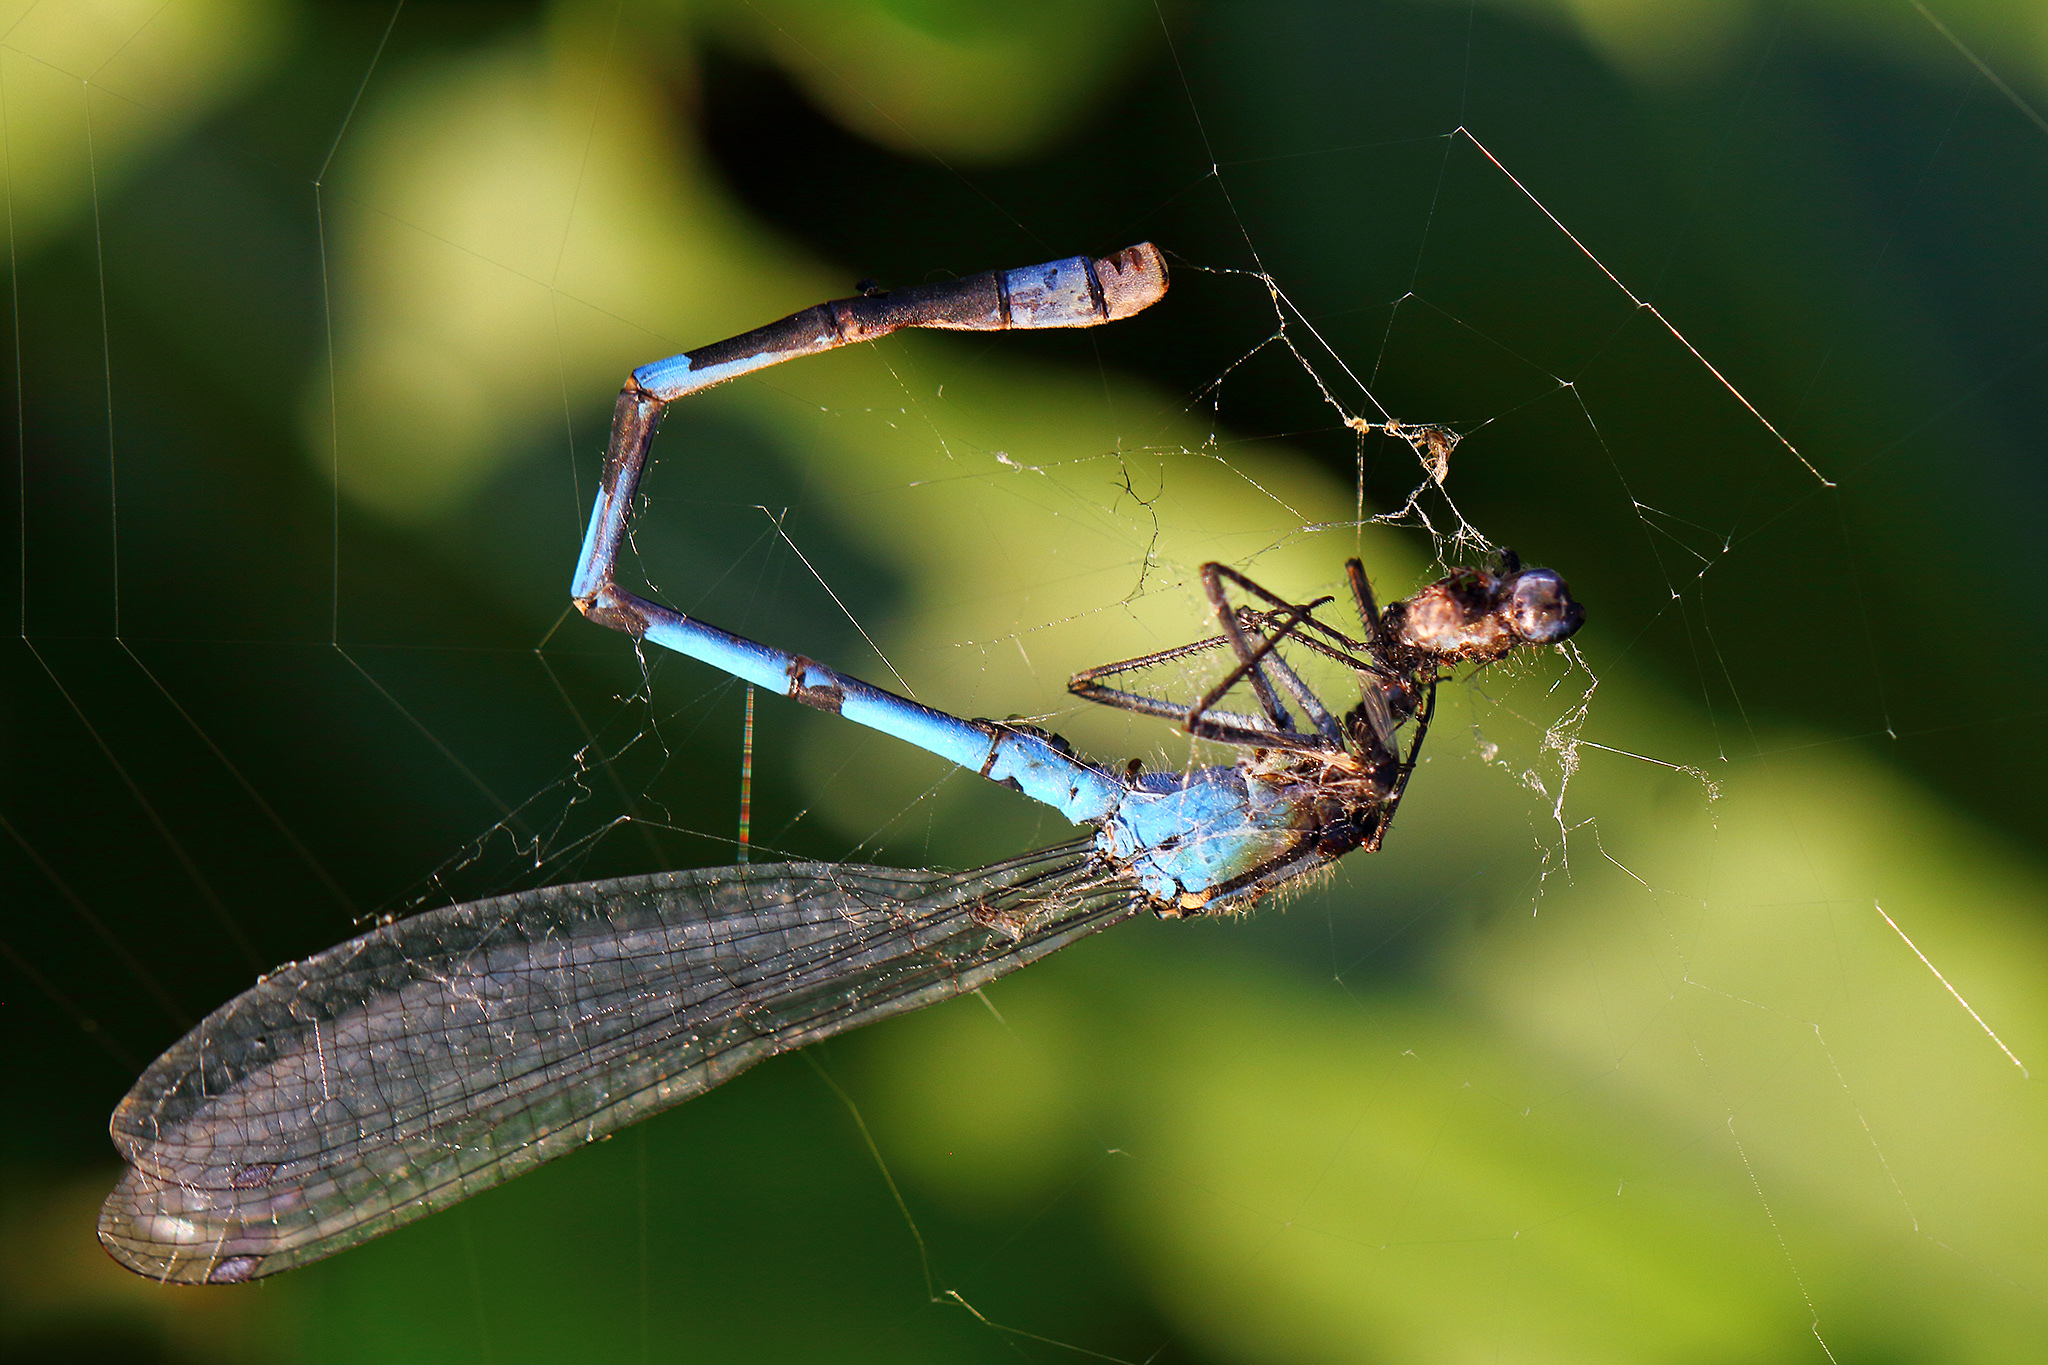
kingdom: Animalia
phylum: Arthropoda
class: Insecta
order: Odonata
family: Coenagrionidae
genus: Enallagma
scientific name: Enallagma cyathigerum
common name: Common blue damselfly
